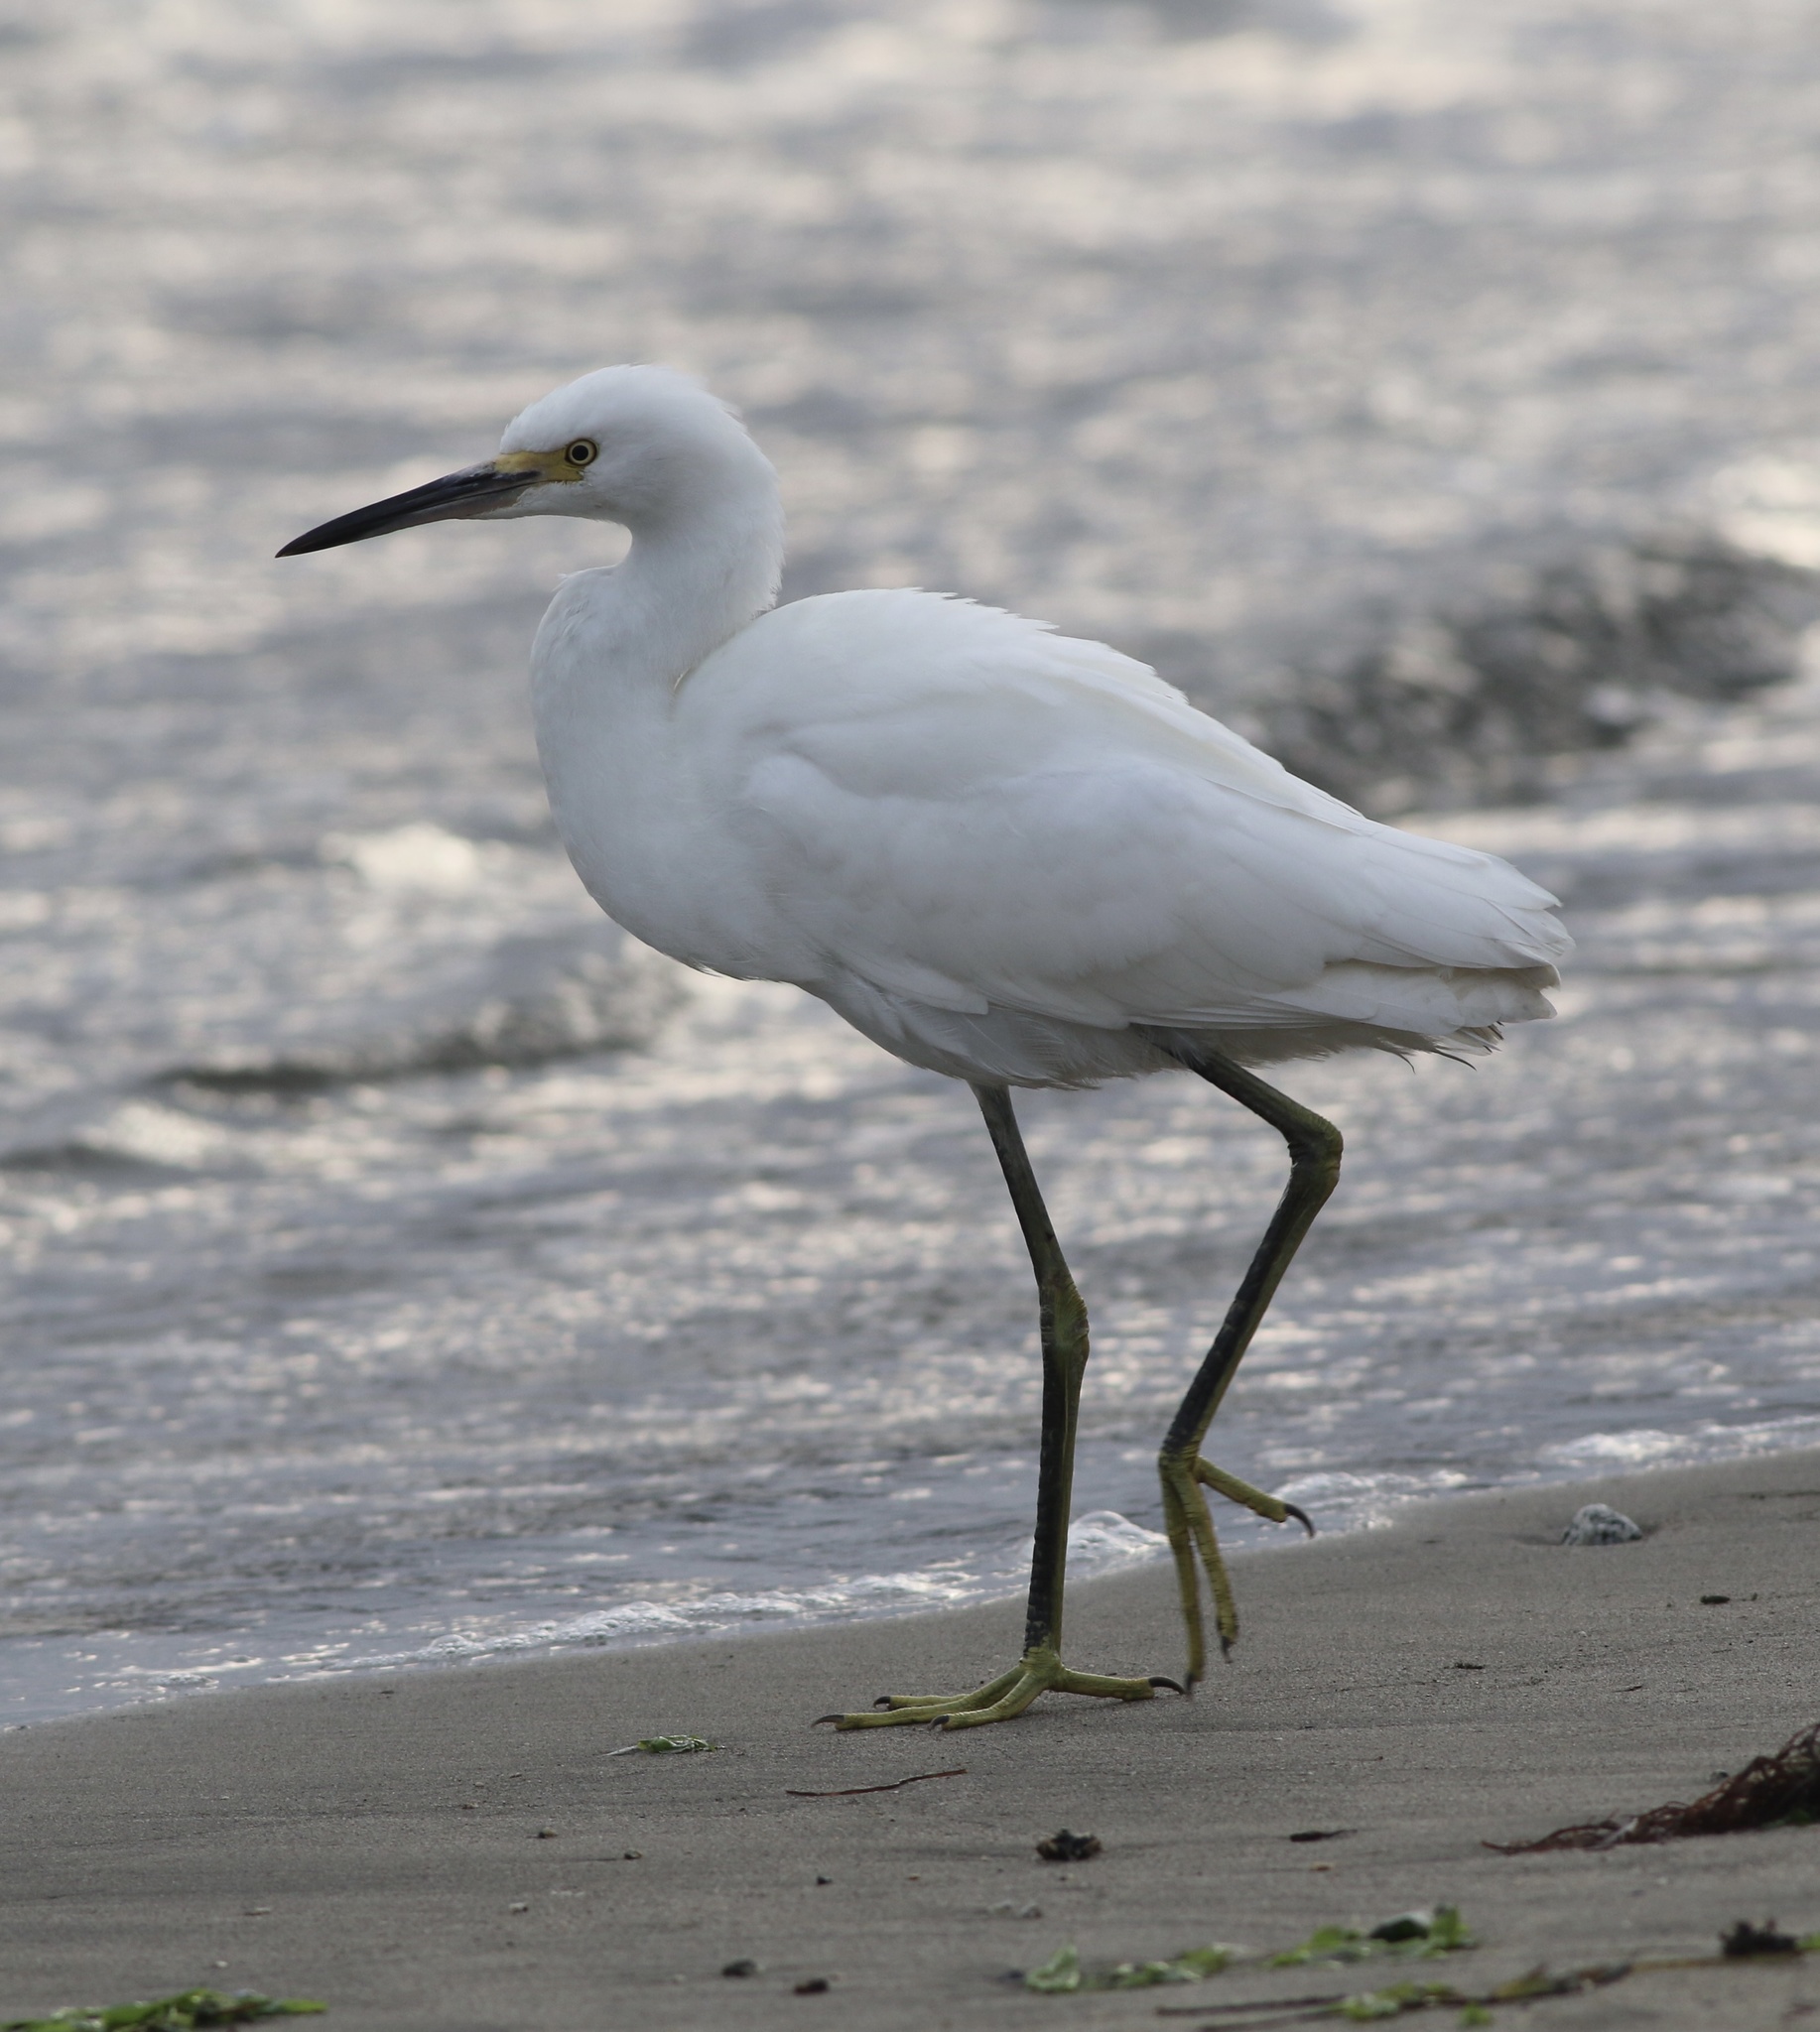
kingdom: Animalia
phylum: Chordata
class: Aves
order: Pelecaniformes
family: Ardeidae
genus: Egretta
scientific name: Egretta thula
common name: Snowy egret
